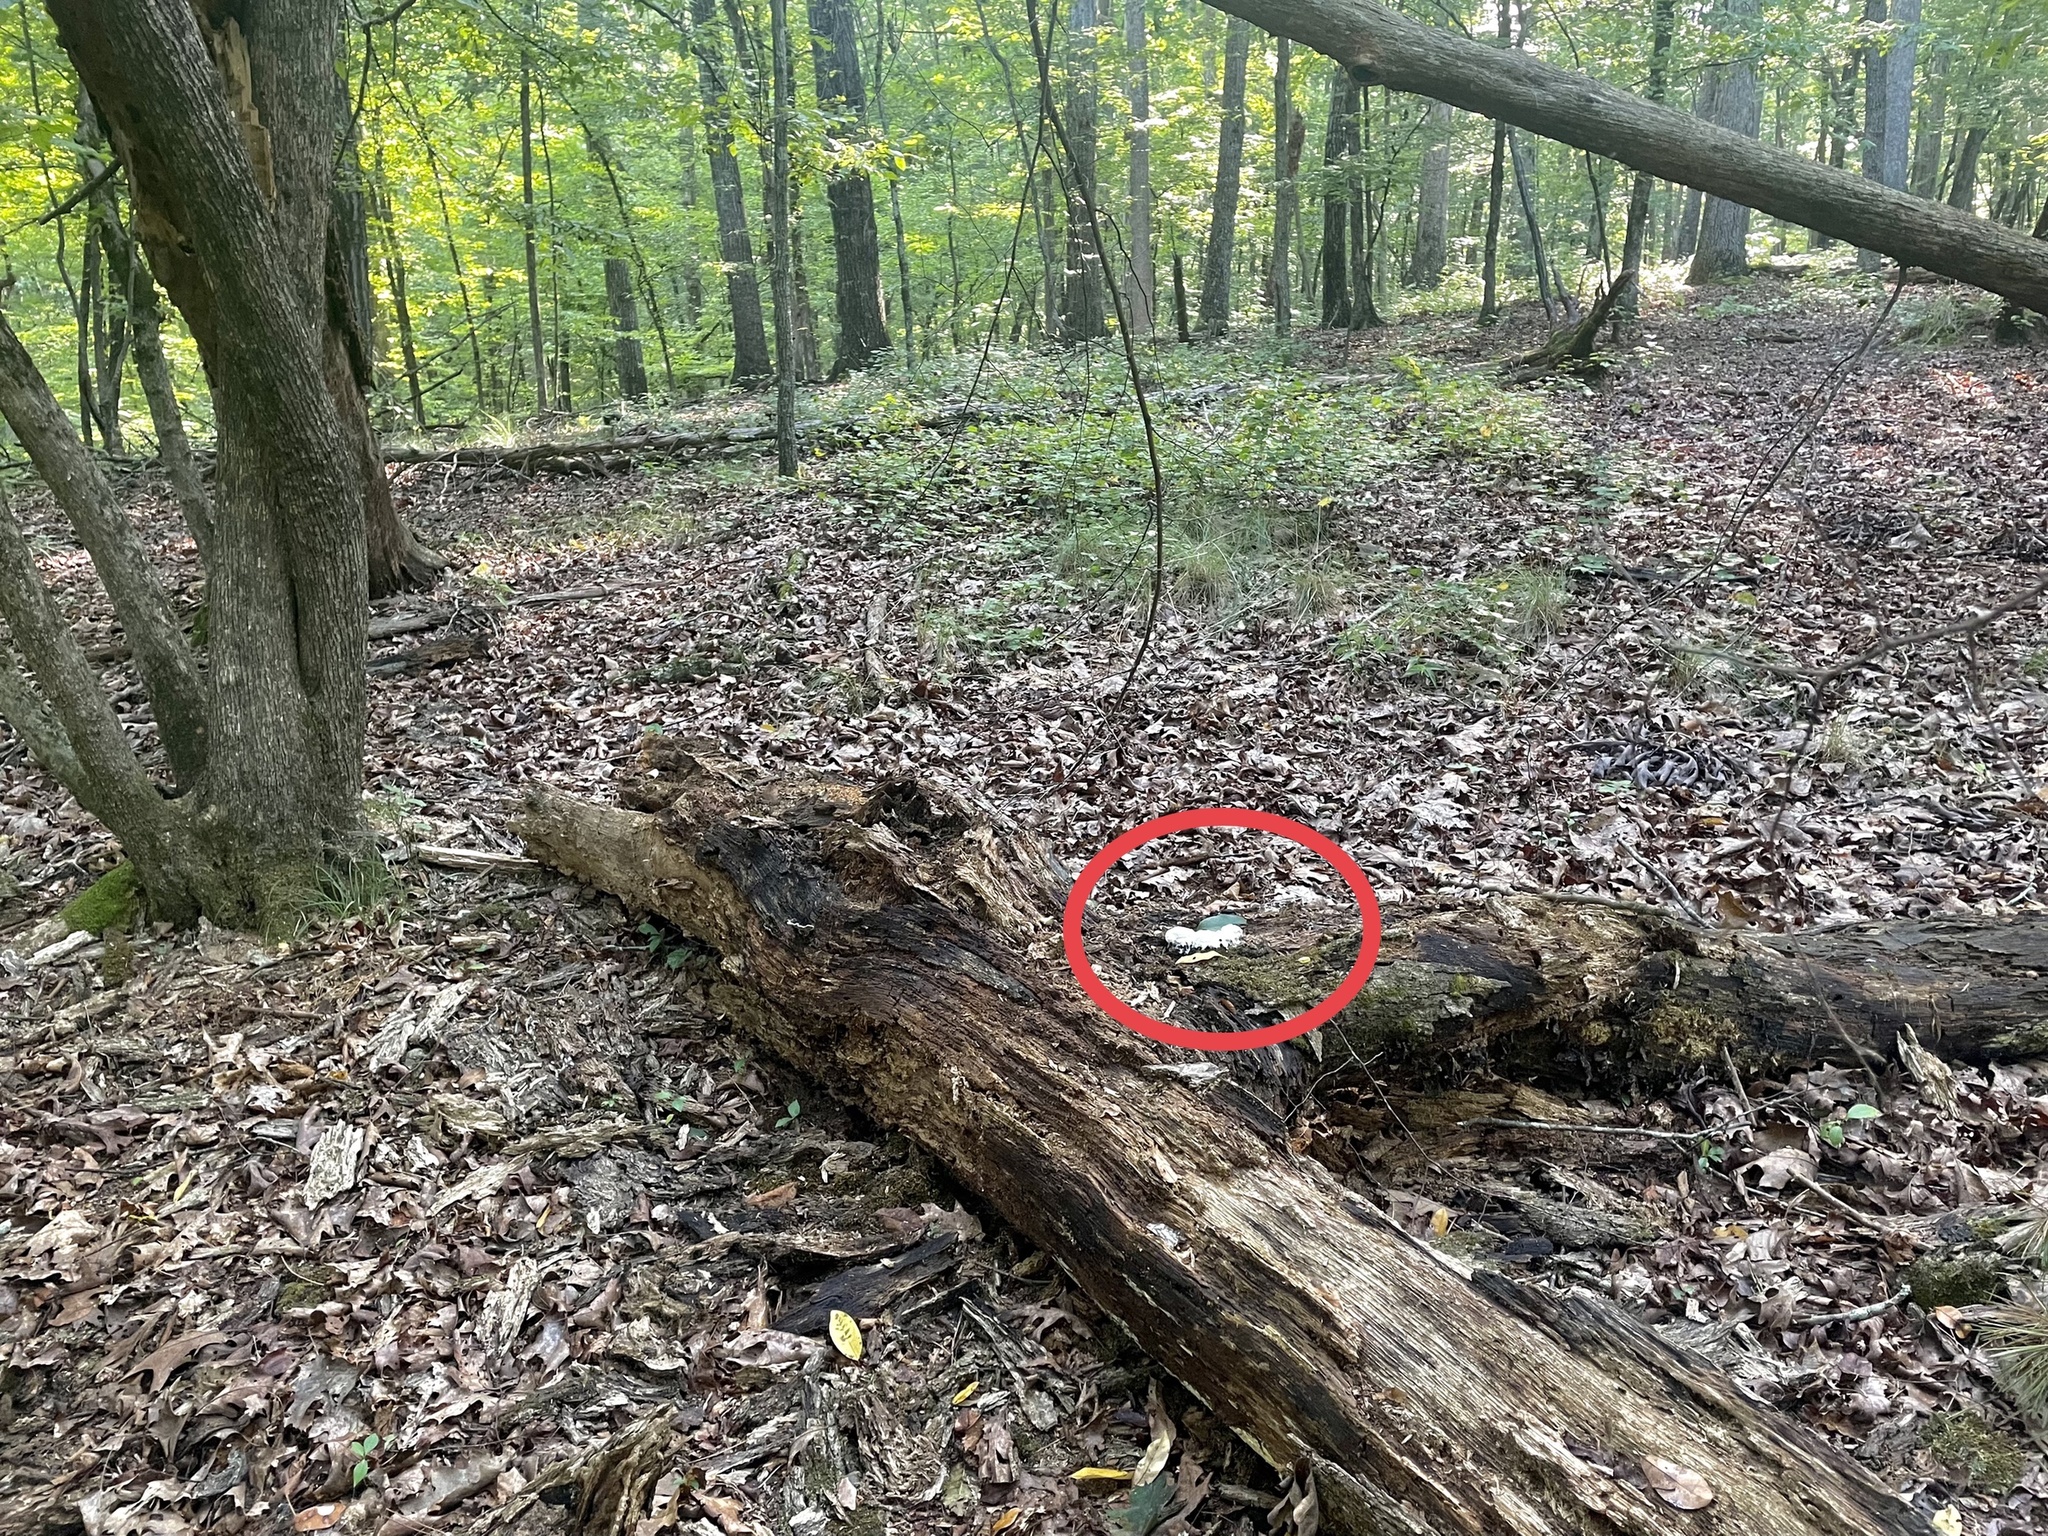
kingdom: Protozoa
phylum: Mycetozoa
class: Myxomycetes
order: Physarales
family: Physaraceae
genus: Fuligo
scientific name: Fuligo septica
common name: Dog vomit slime mold
